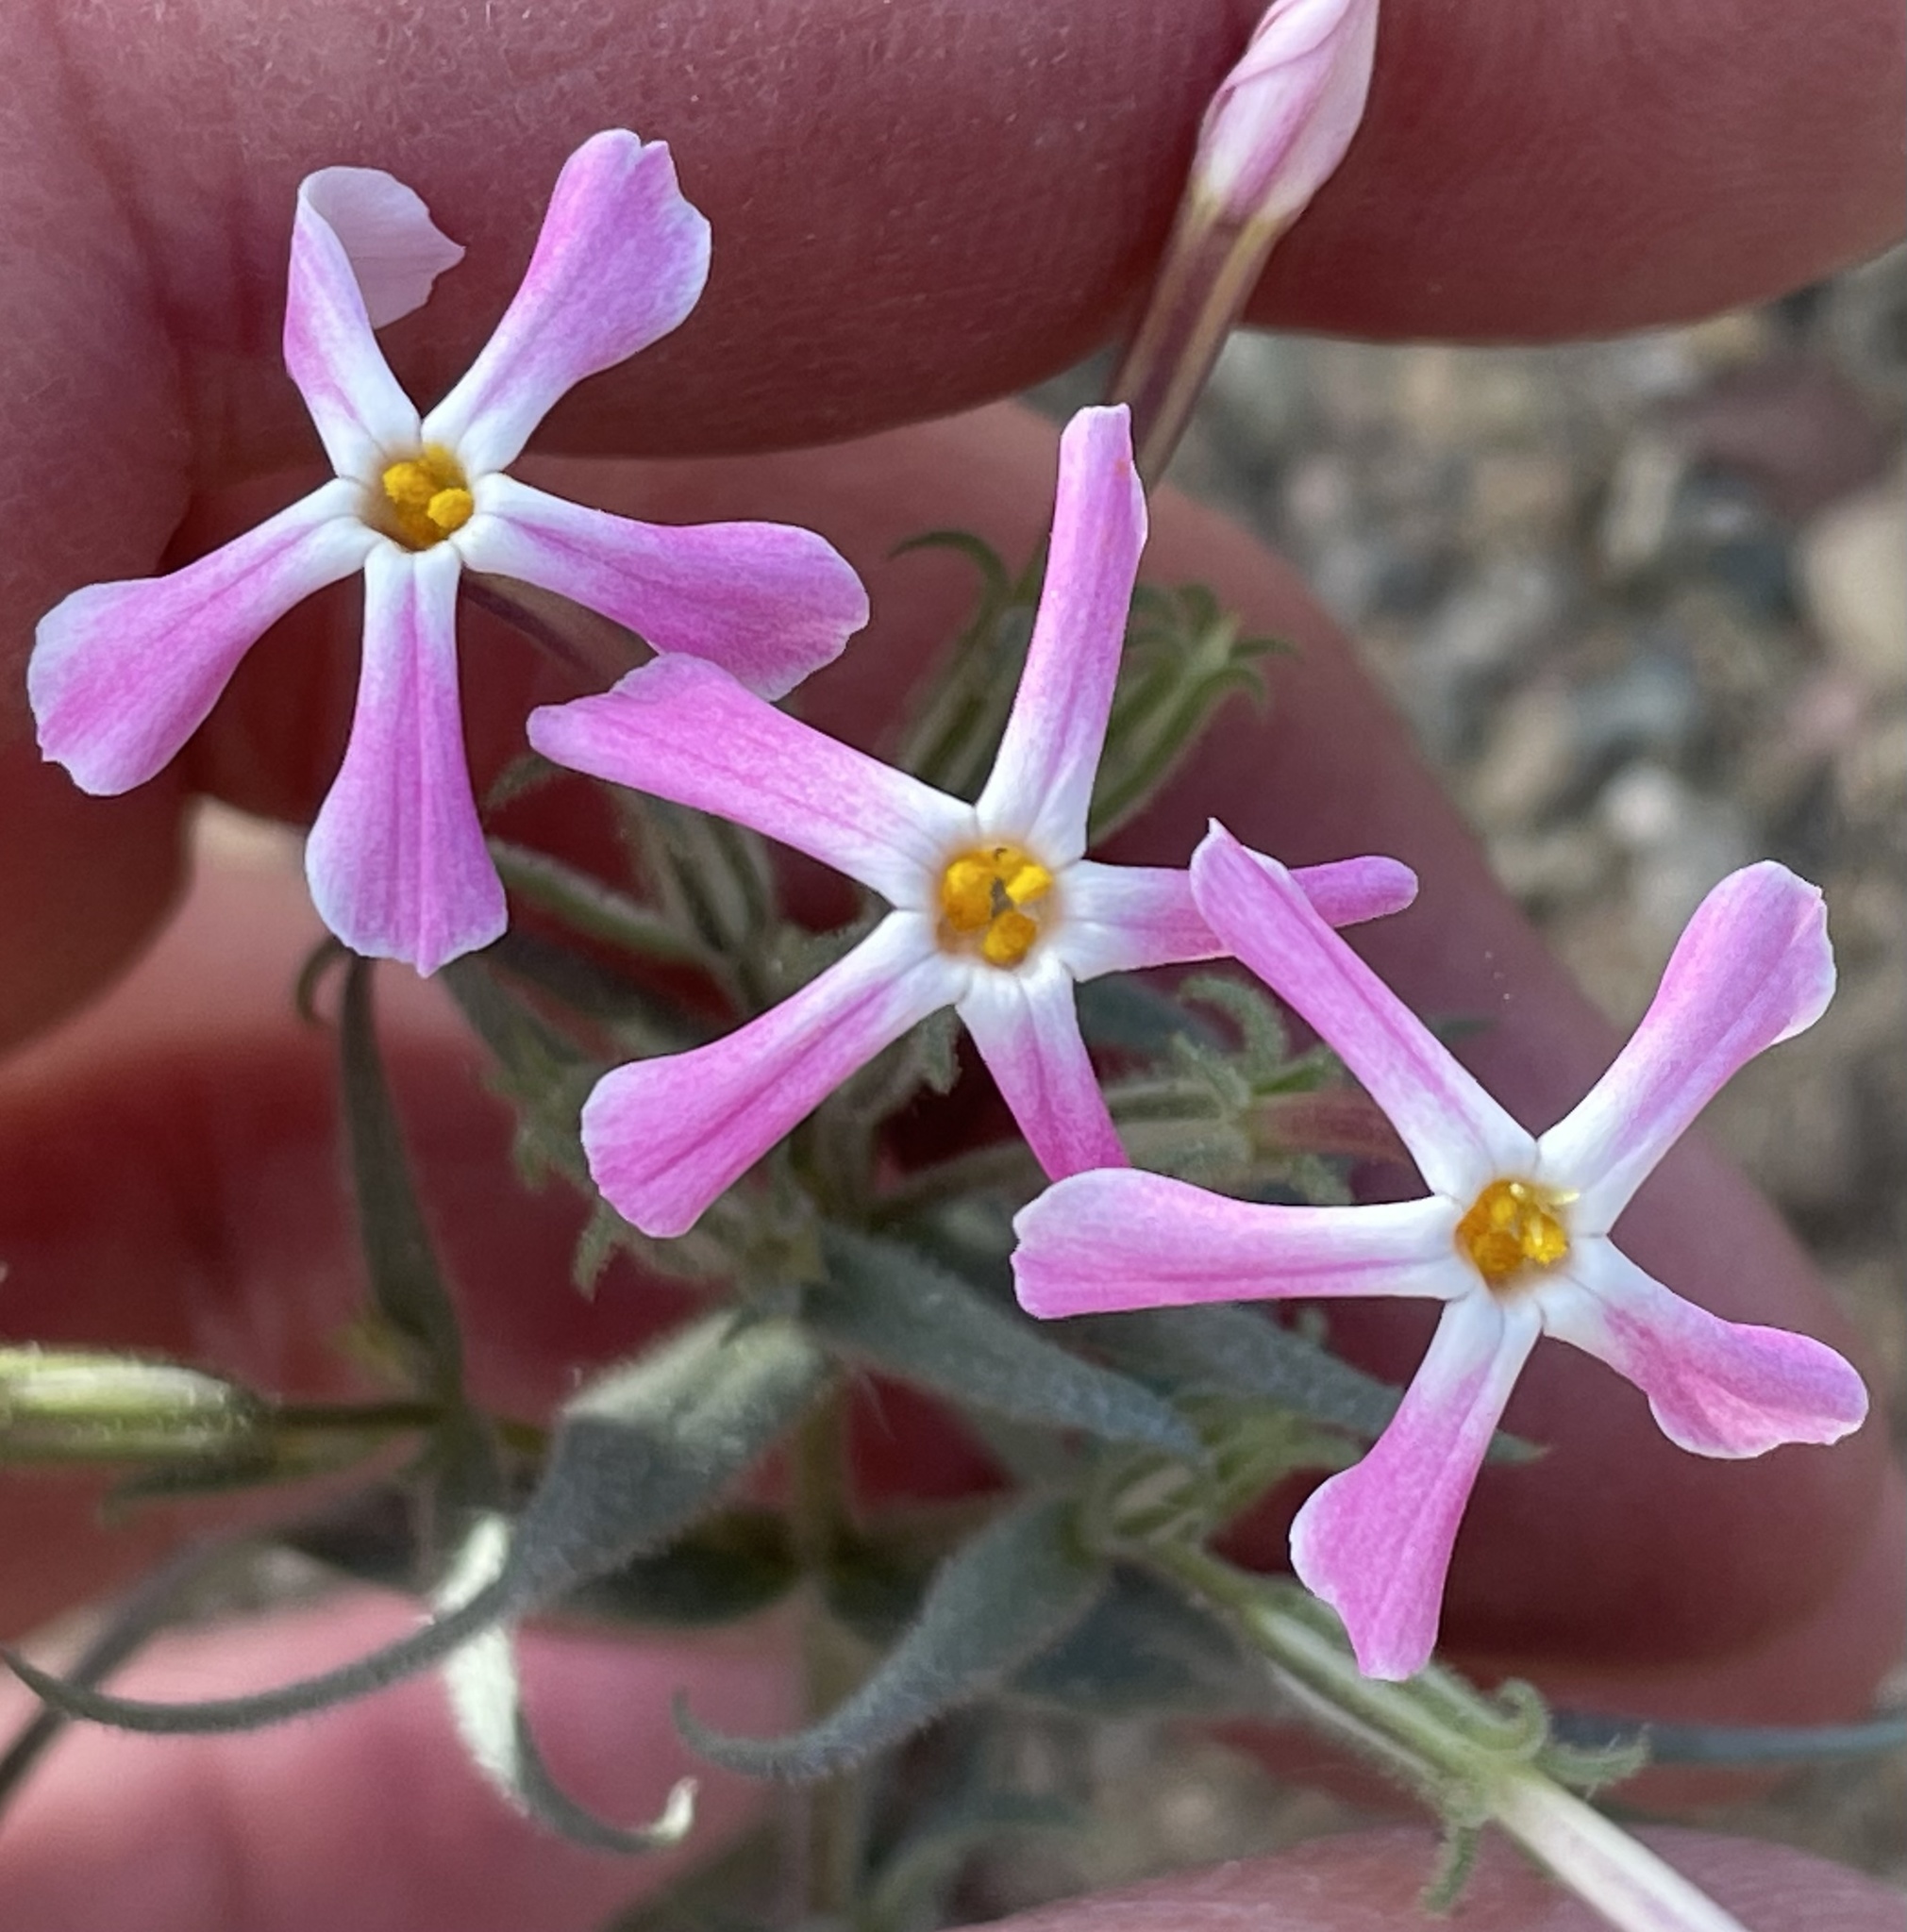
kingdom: Plantae
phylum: Tracheophyta
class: Magnoliopsida
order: Ericales
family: Polemoniaceae
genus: Phlox
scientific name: Phlox longifolia
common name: Longleaf phlox
